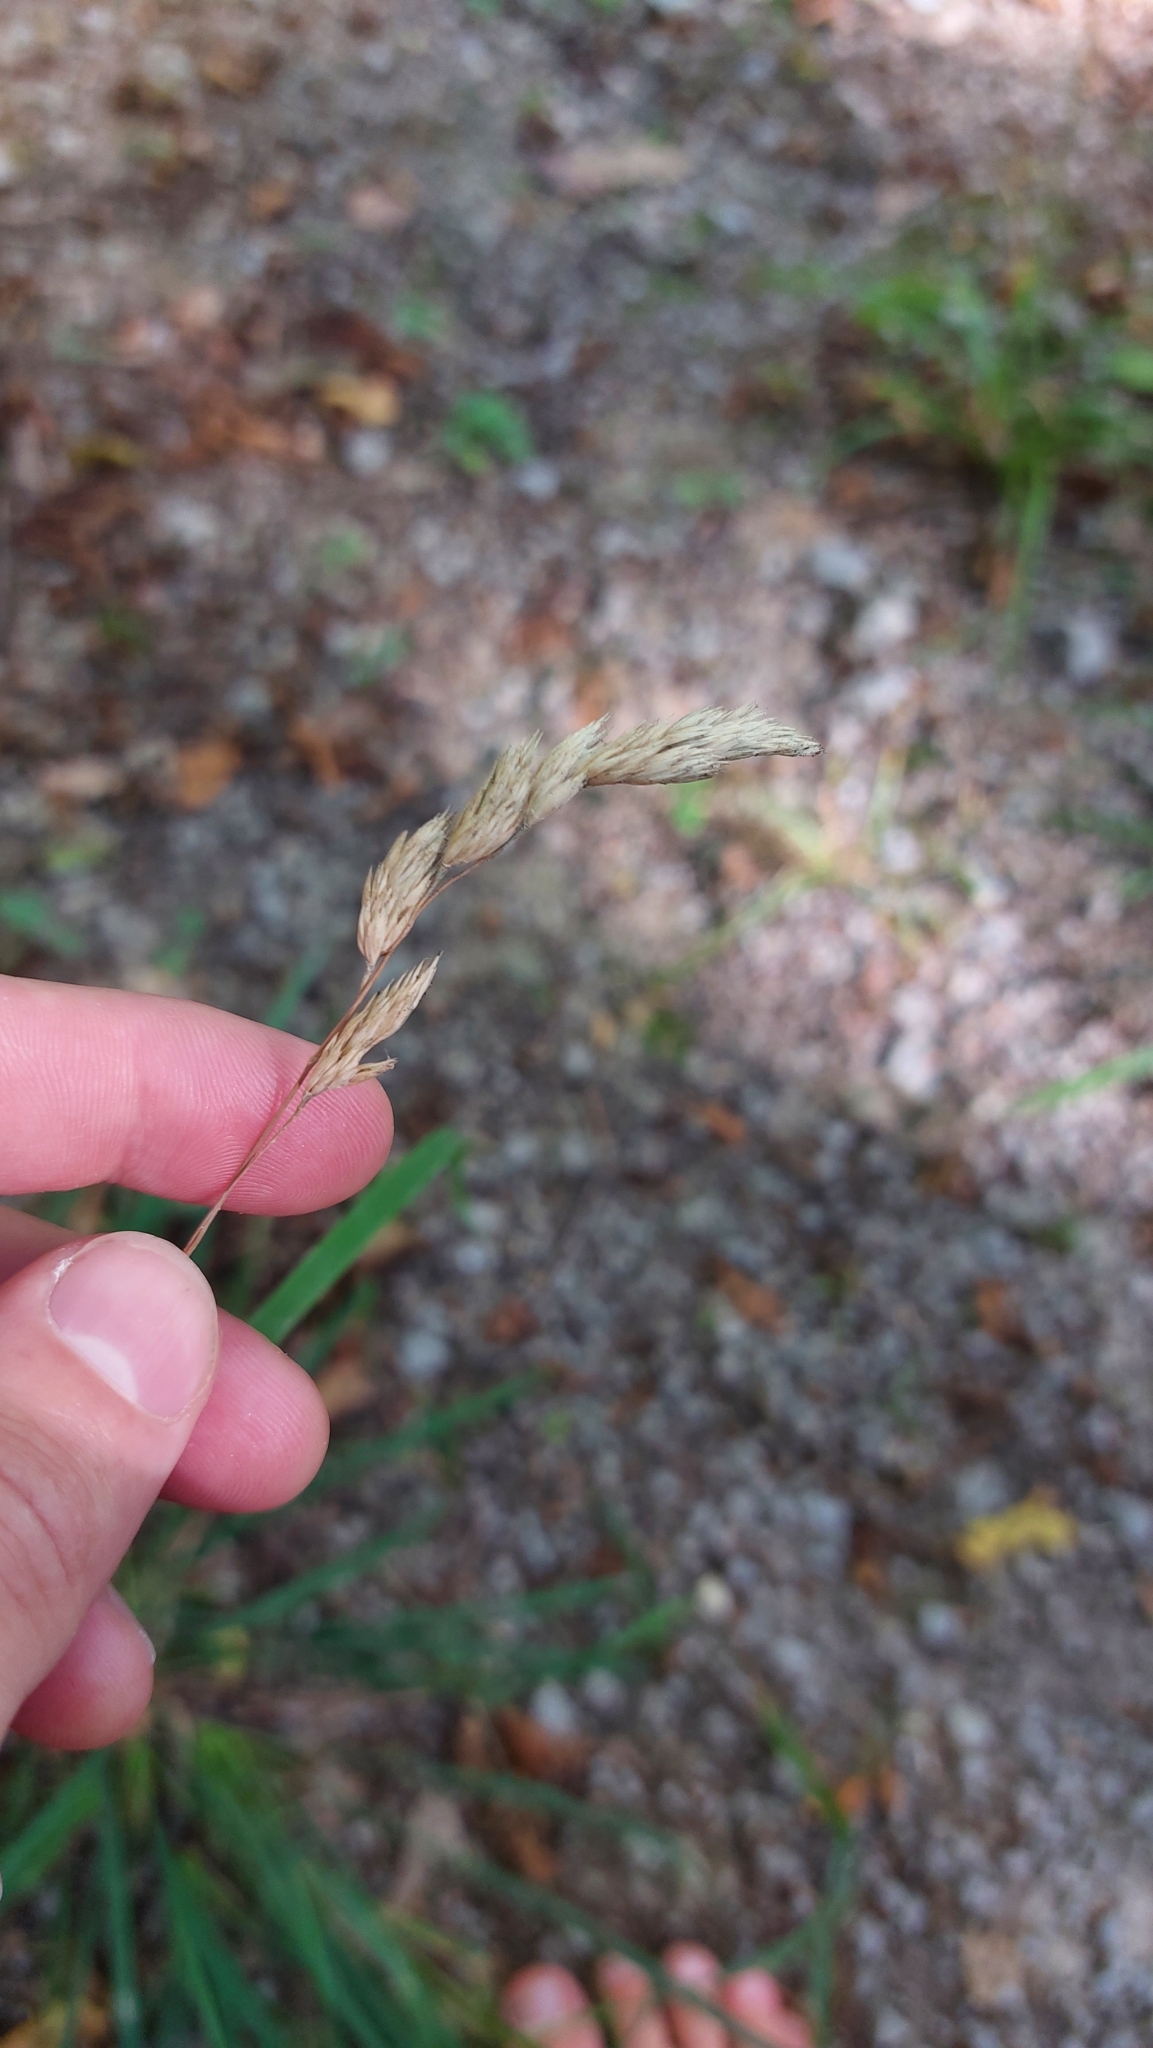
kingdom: Plantae
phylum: Tracheophyta
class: Liliopsida
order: Poales
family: Poaceae
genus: Dactylis
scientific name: Dactylis glomerata
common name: Orchardgrass
